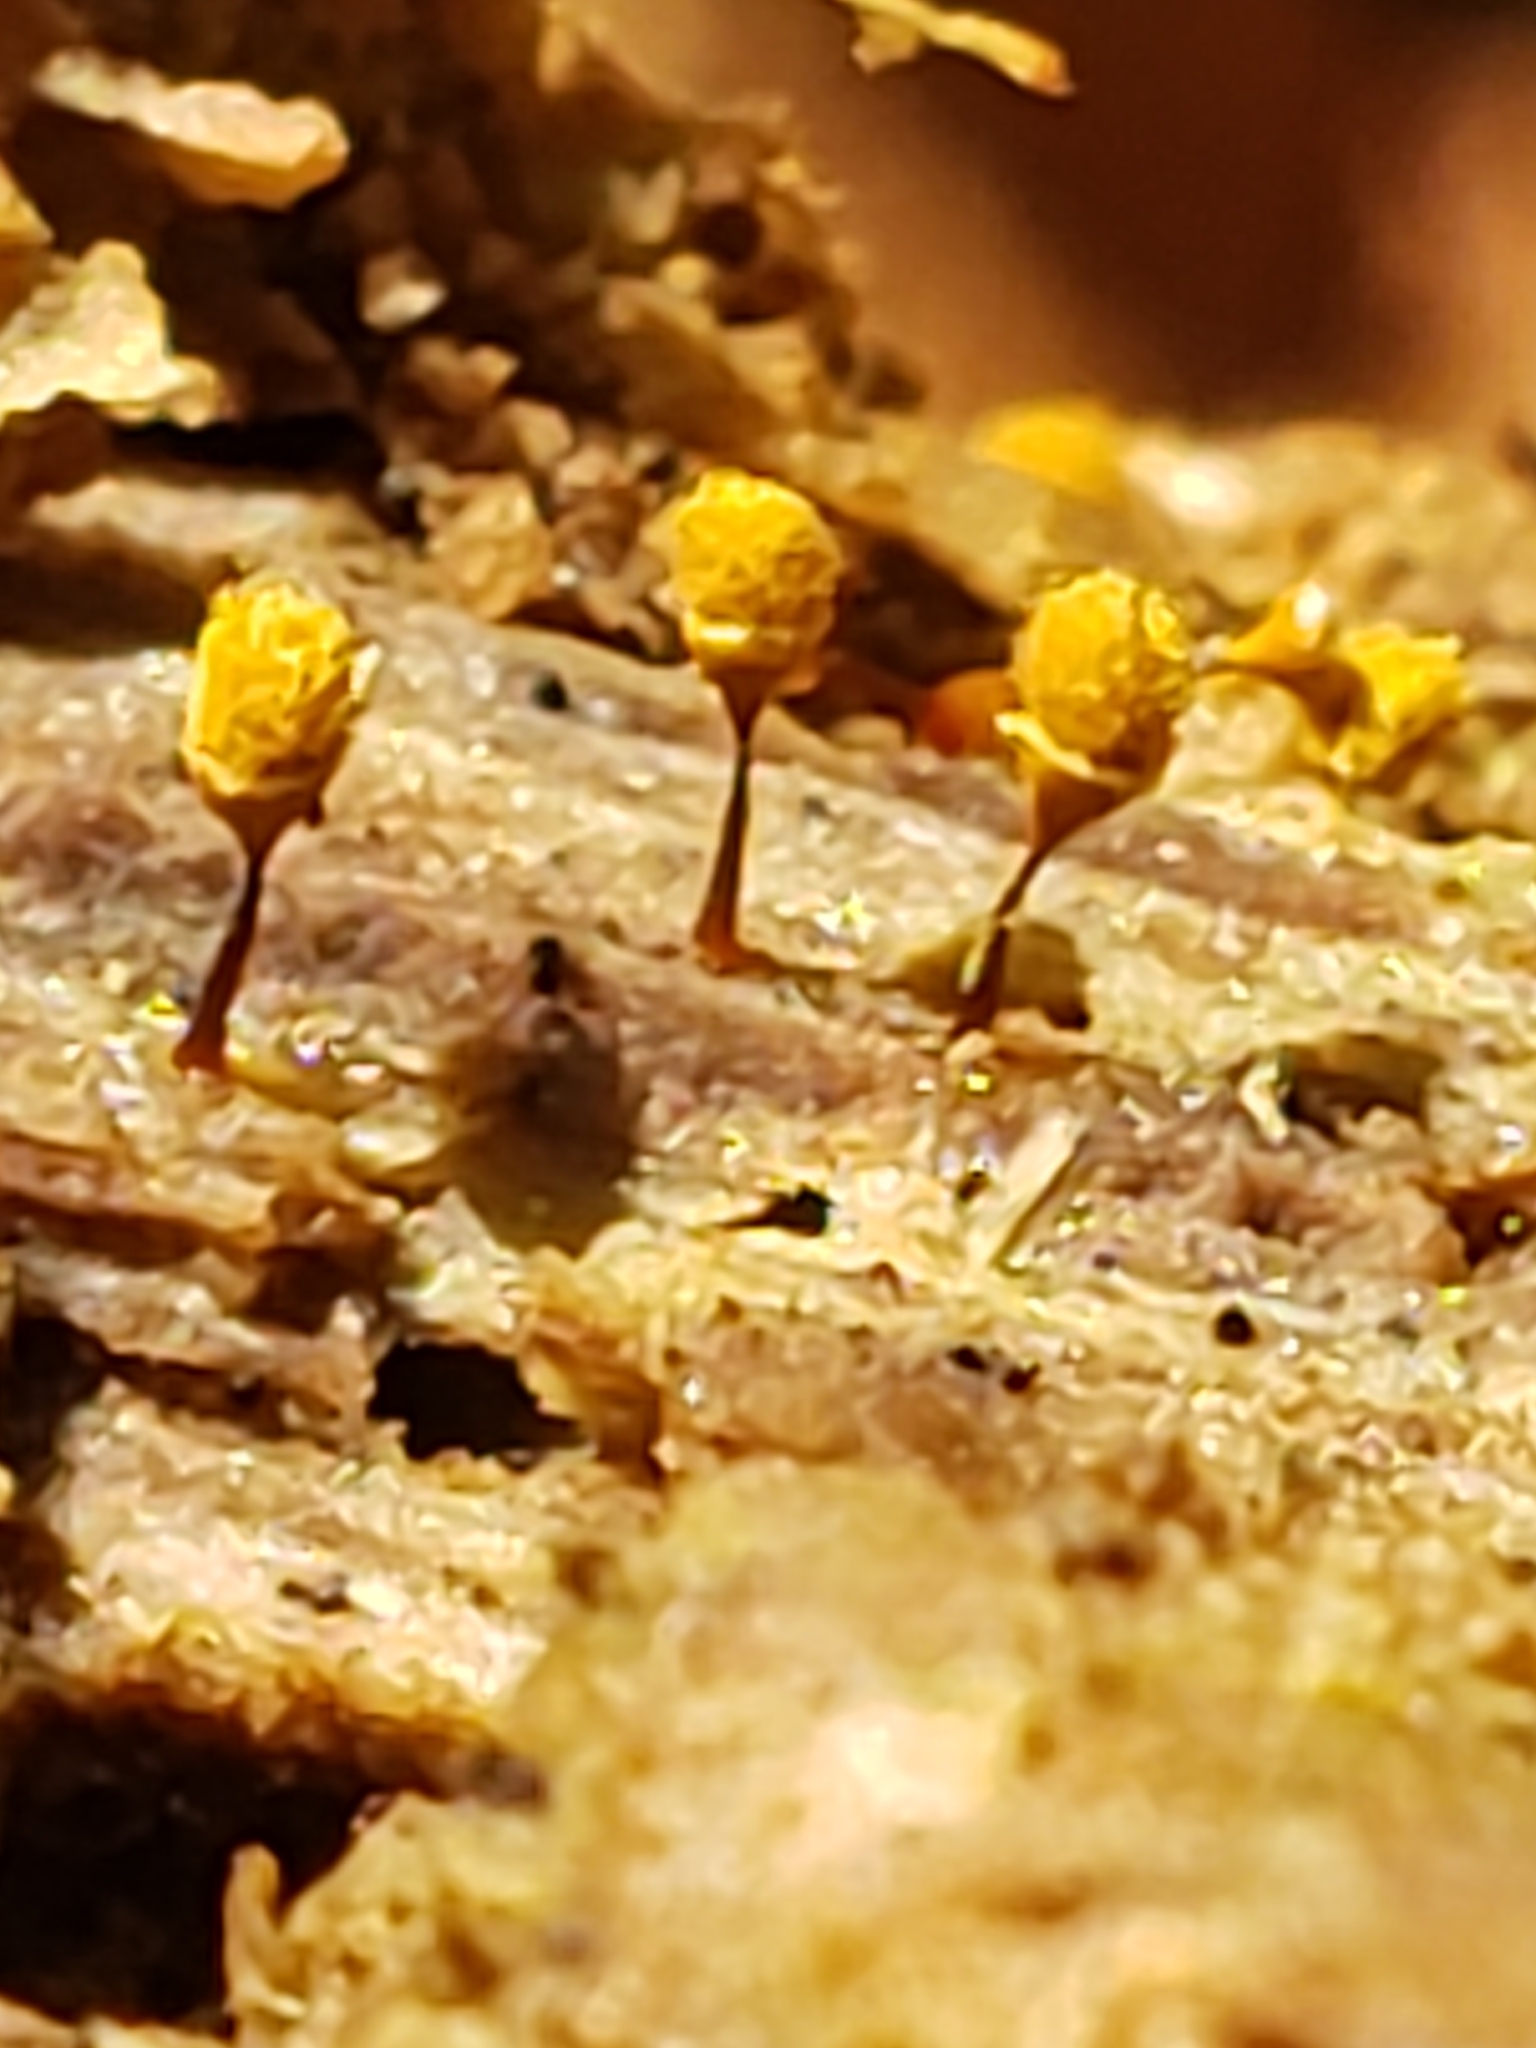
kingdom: Protozoa
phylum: Mycetozoa
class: Myxomycetes
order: Trichiales
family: Arcyriaceae
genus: Hemitrichia
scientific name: Hemitrichia calyculata
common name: Push pin slime mold
